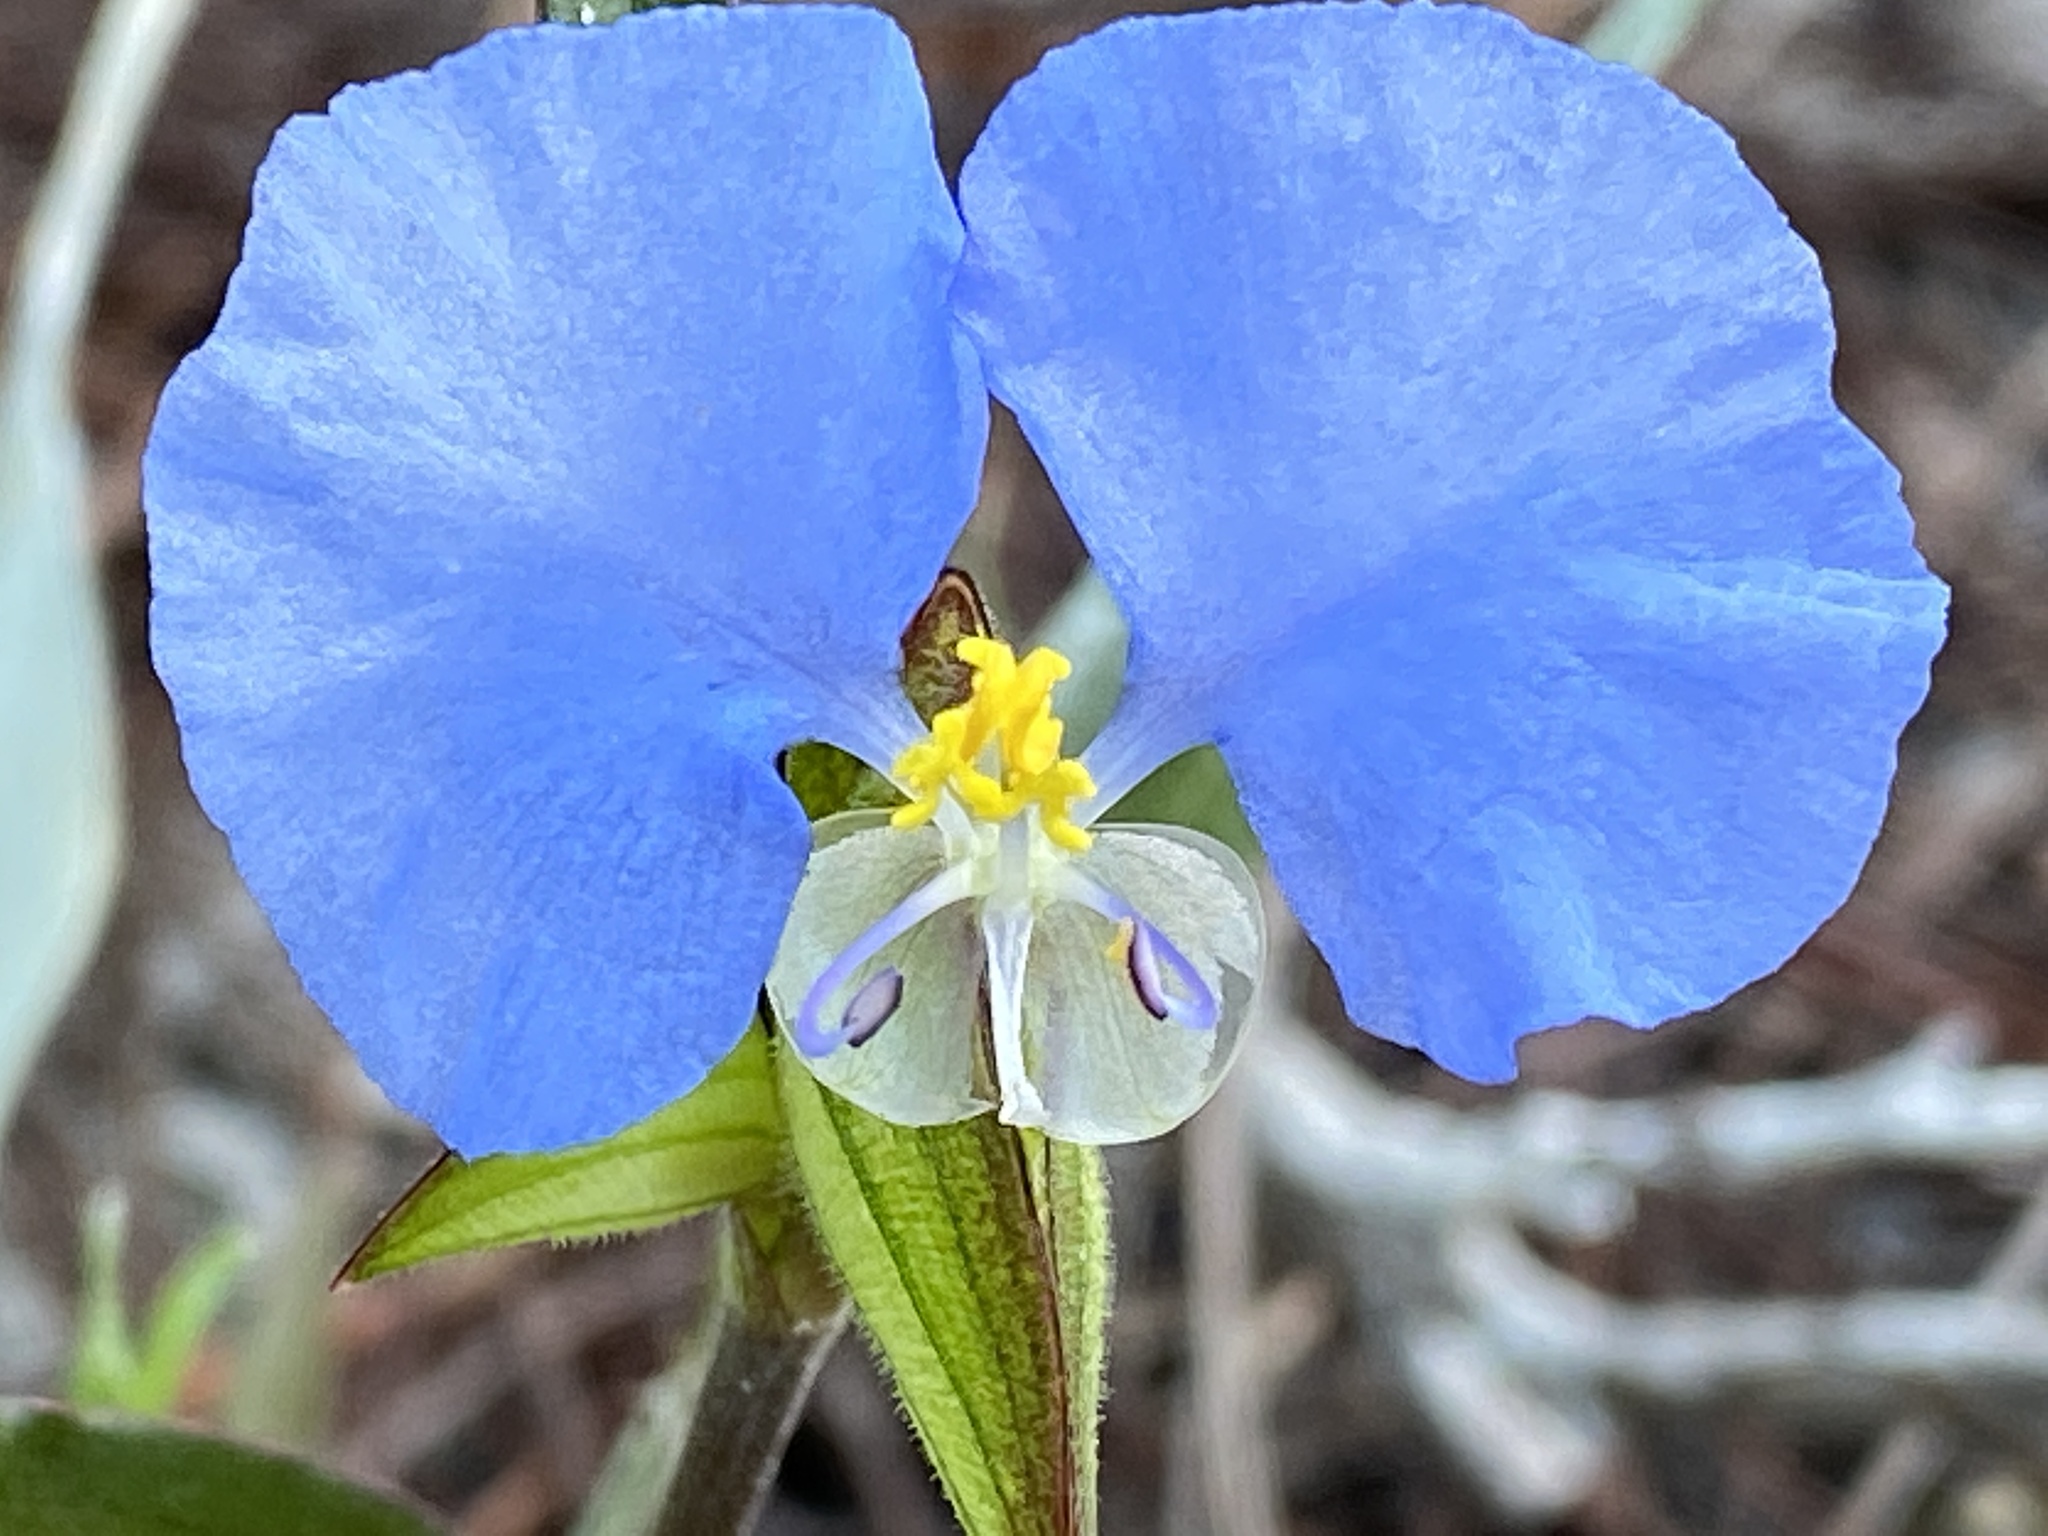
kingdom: Plantae
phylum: Tracheophyta
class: Liliopsida
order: Commelinales
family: Commelinaceae
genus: Commelina
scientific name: Commelina erecta
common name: Blousel blommetjie
